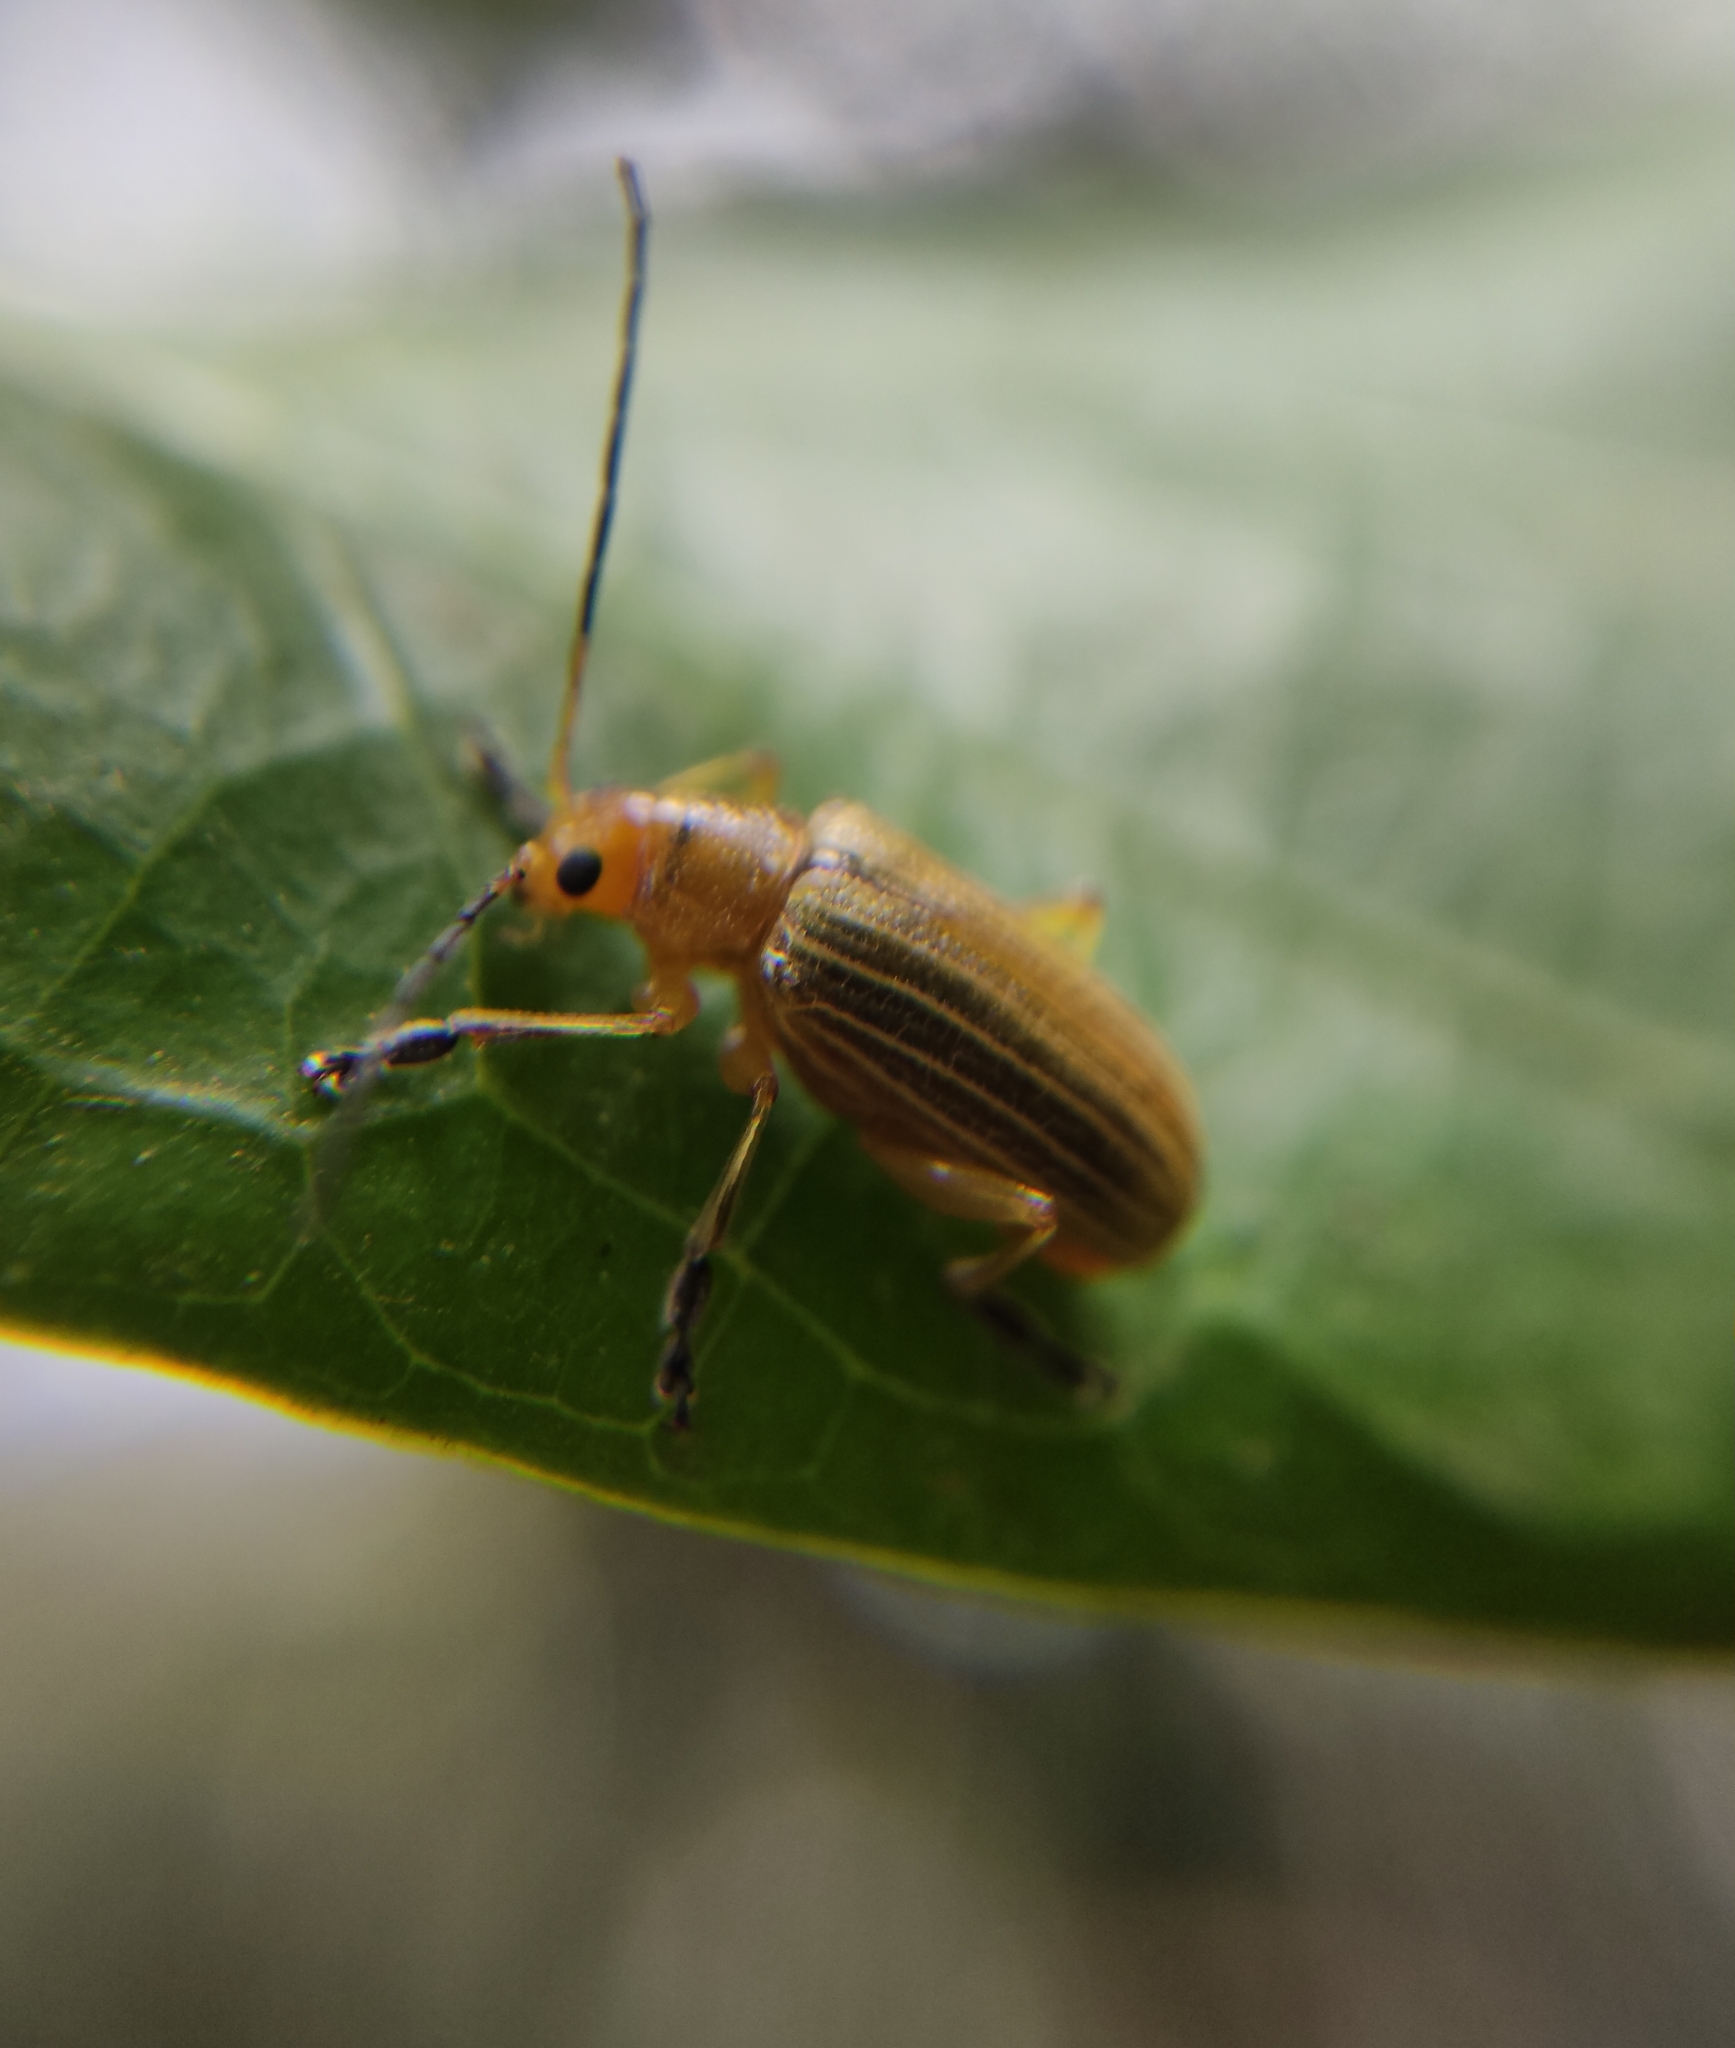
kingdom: Animalia
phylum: Arthropoda
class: Insecta
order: Coleoptera
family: Chrysomelidae
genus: Metaxyonycha
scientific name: Metaxyonycha
